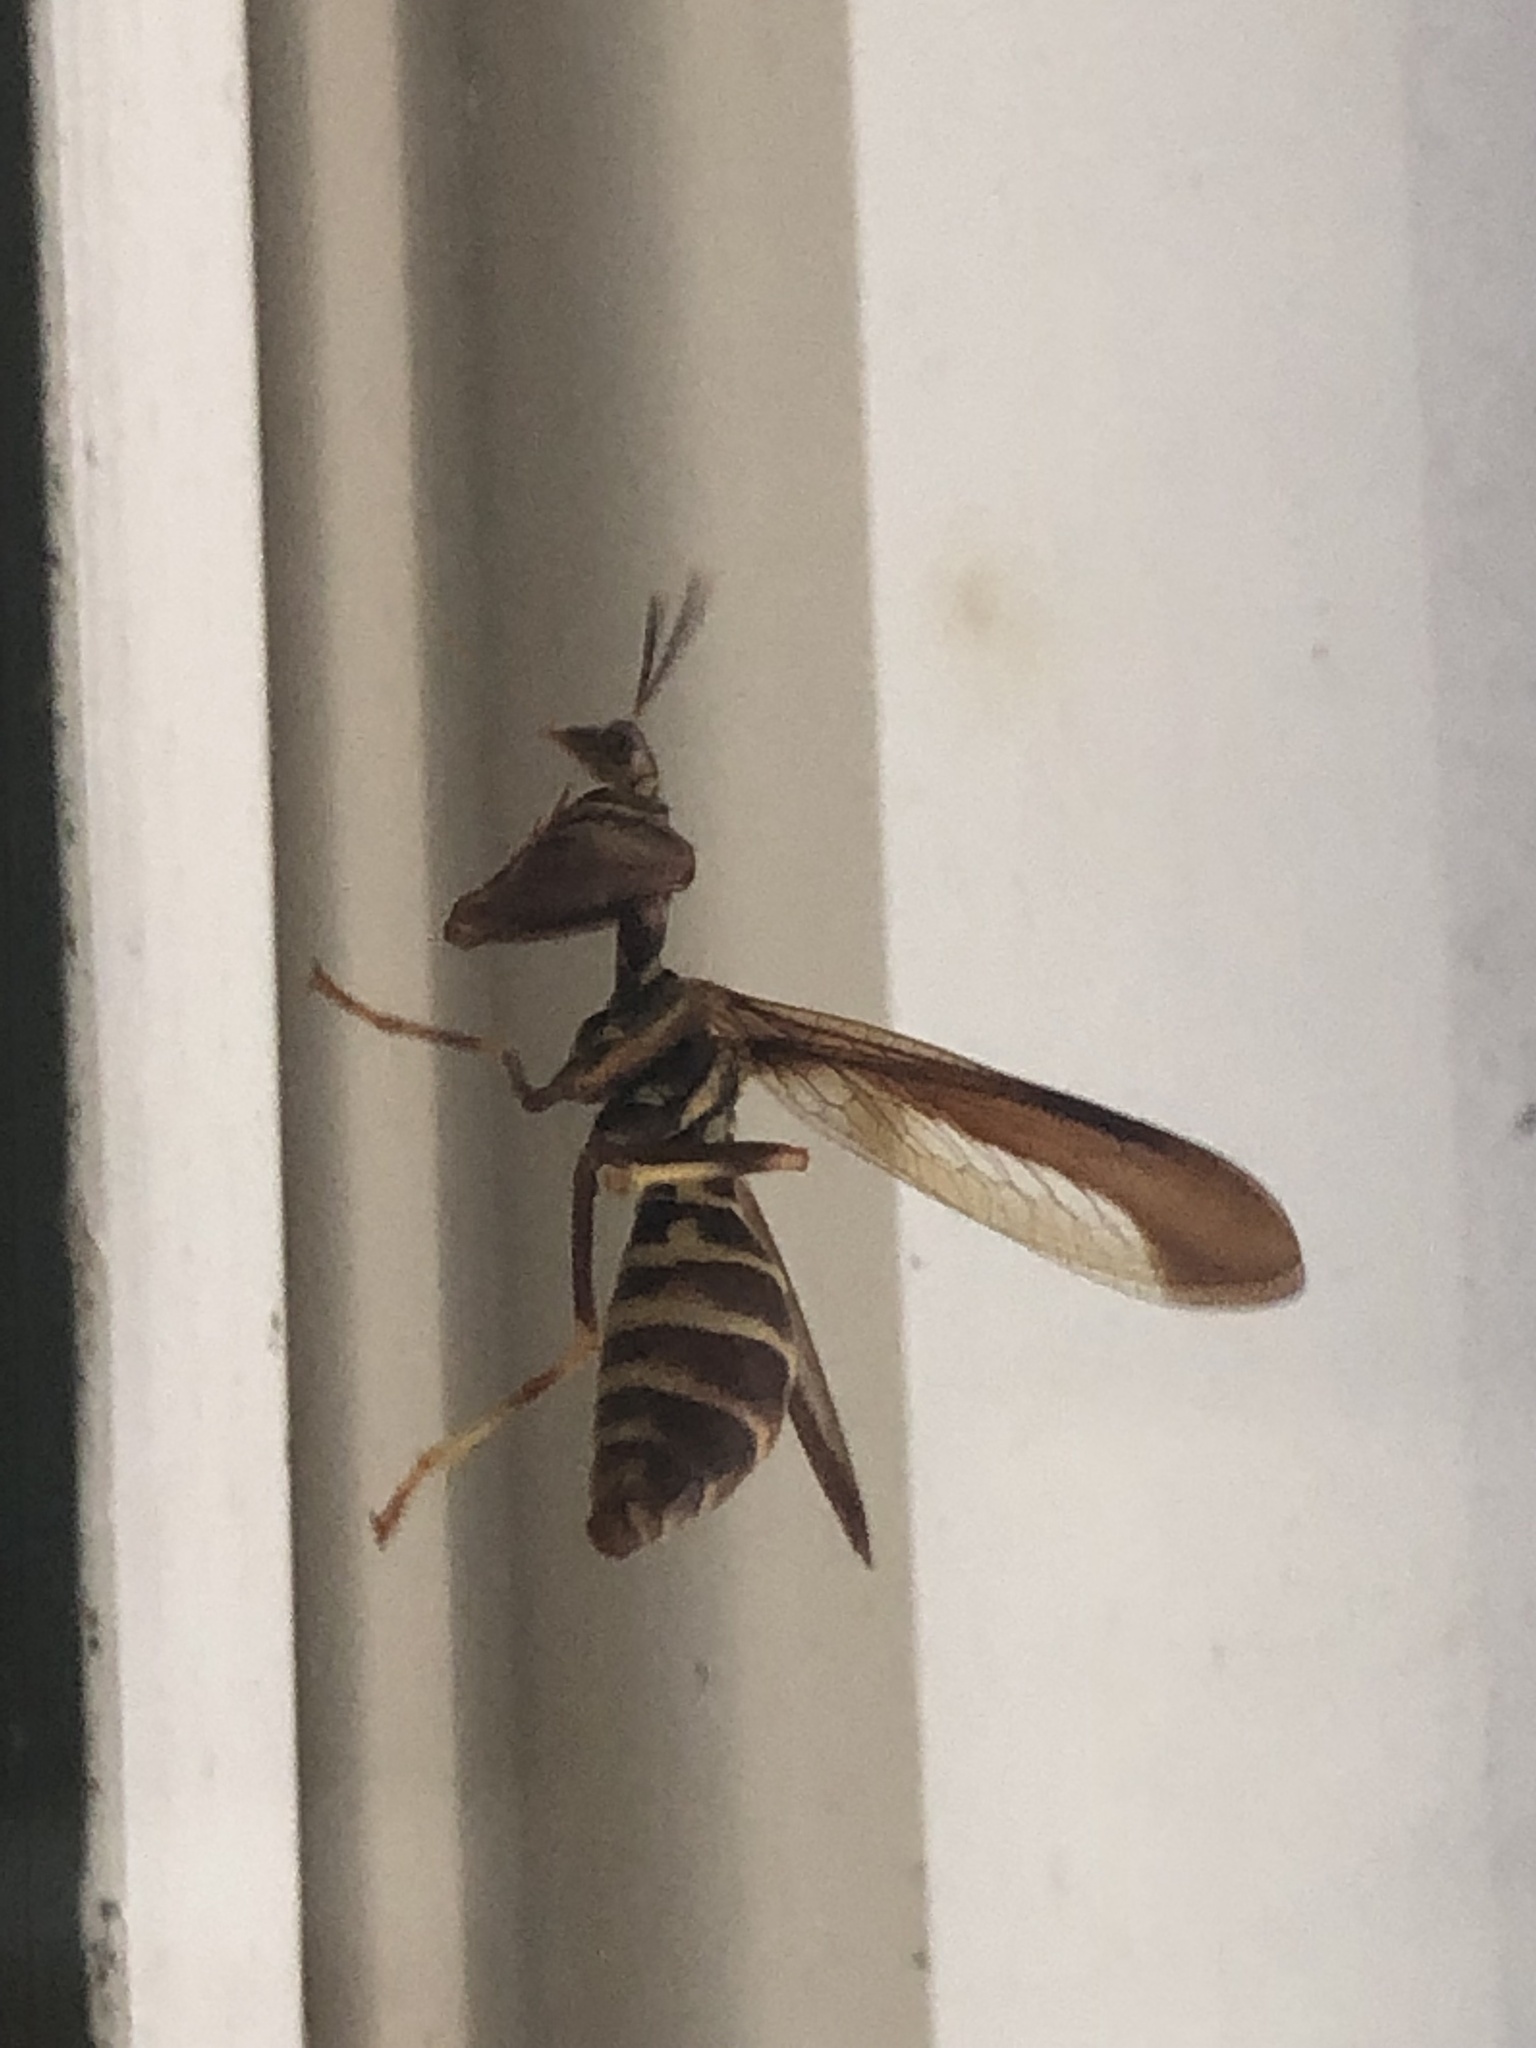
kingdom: Animalia
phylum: Arthropoda
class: Insecta
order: Neuroptera
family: Mantispidae
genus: Climaciella
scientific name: Climaciella brunnea
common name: Brown wasp mantidfly
